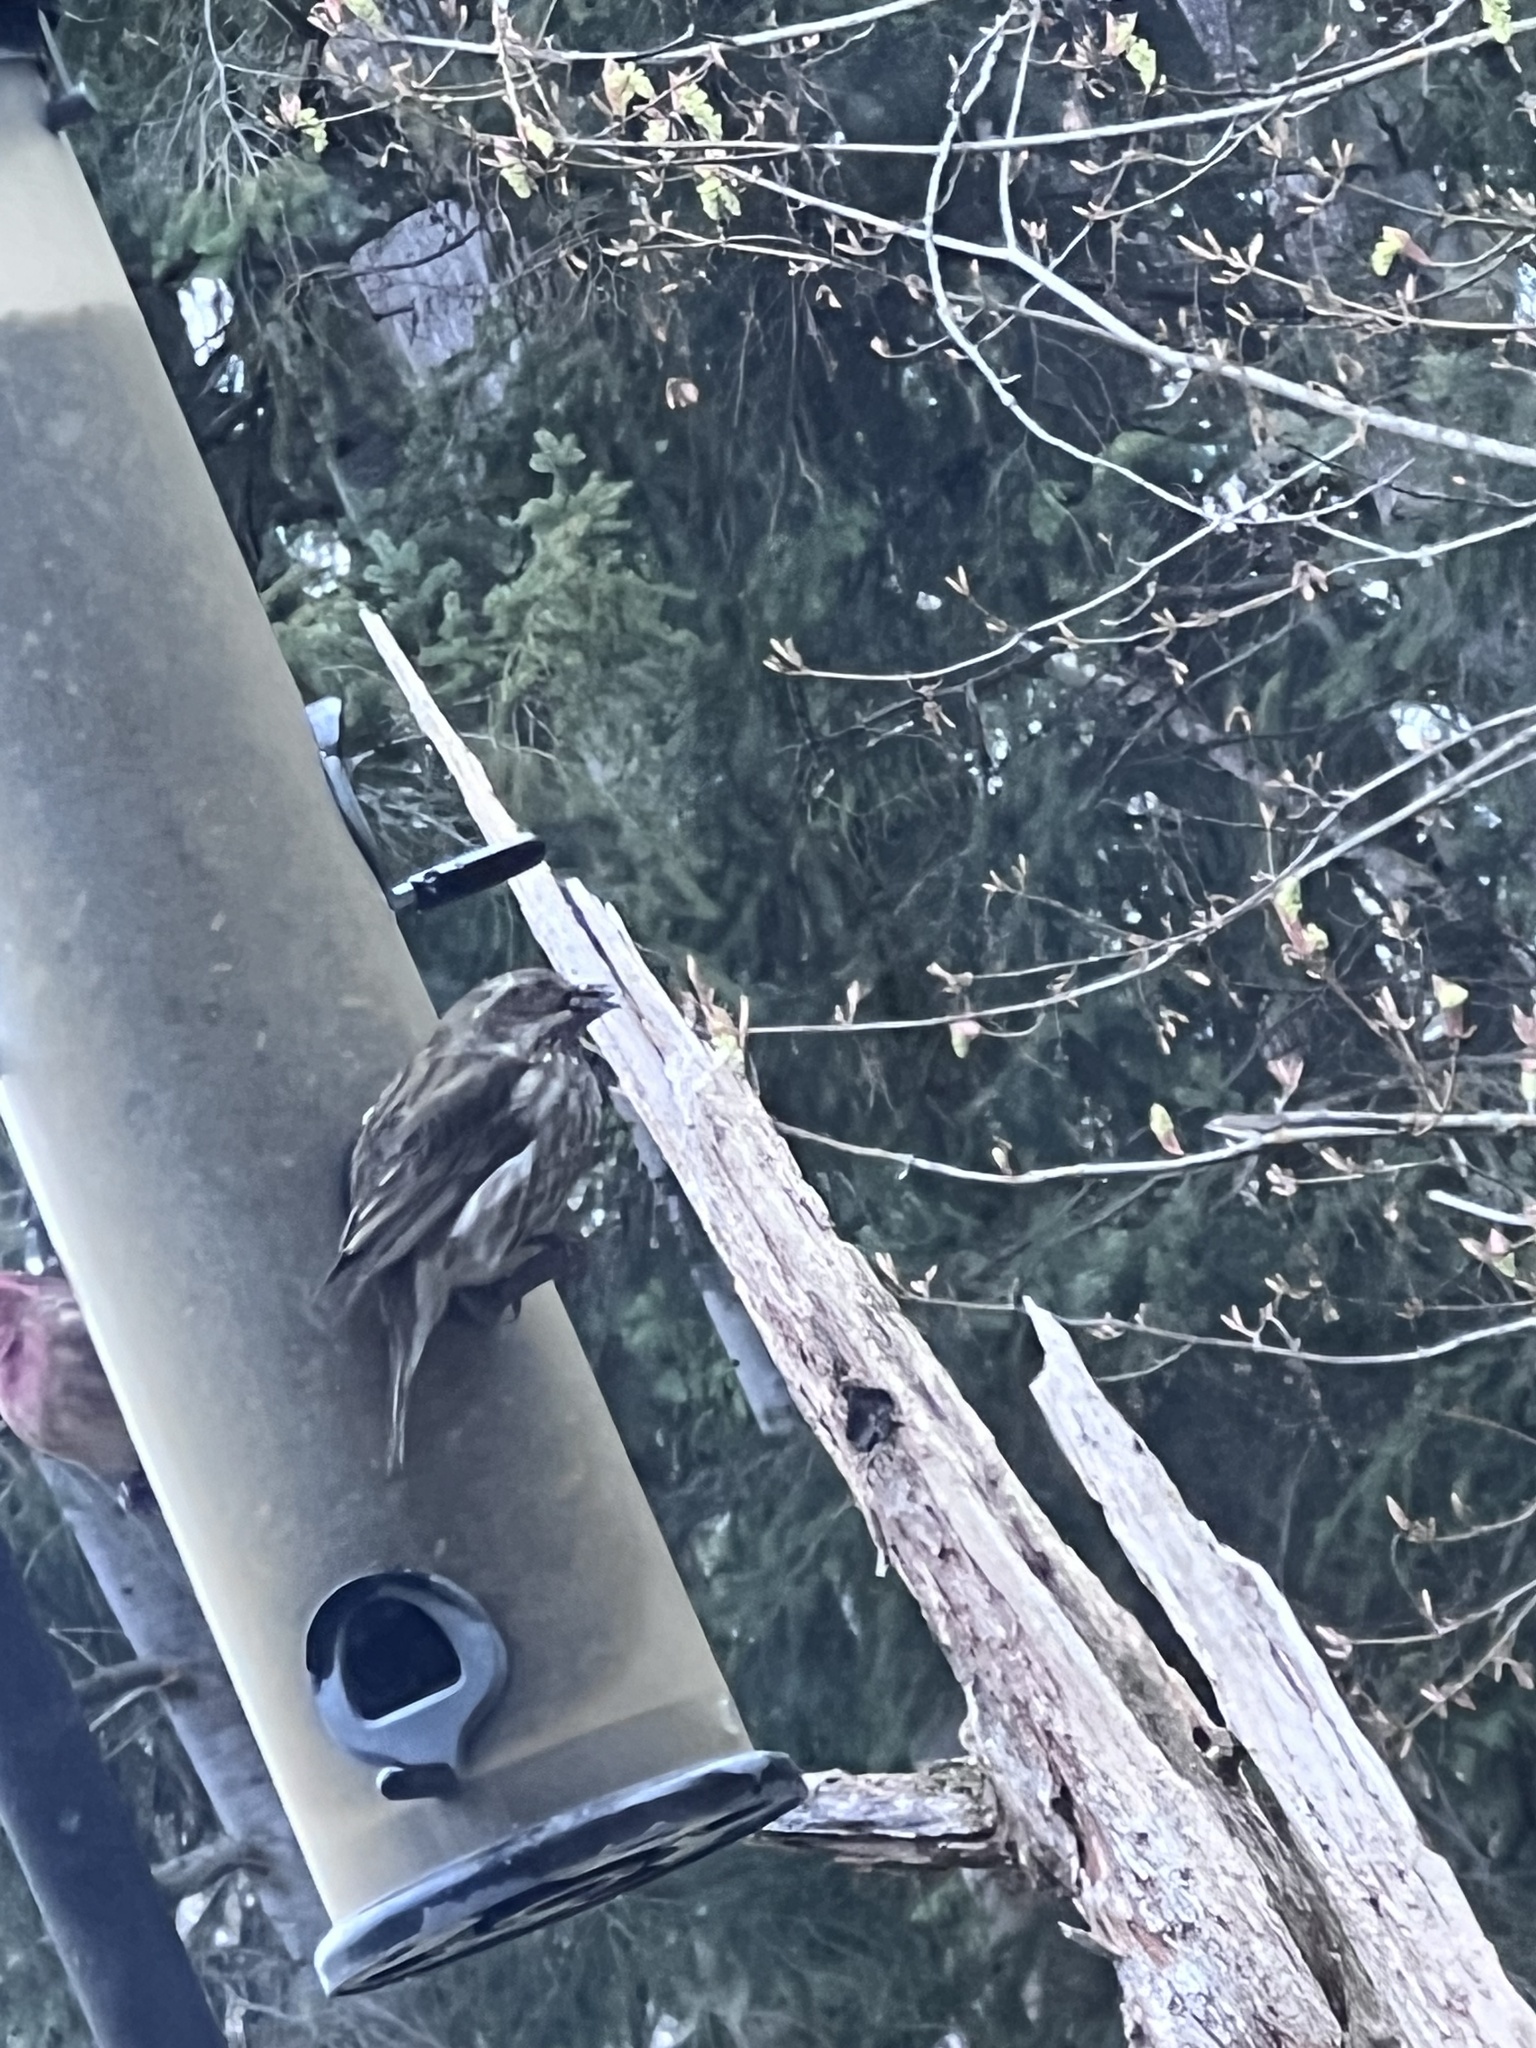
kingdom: Animalia
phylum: Chordata
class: Aves
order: Passeriformes
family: Fringillidae
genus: Haemorhous
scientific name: Haemorhous purpureus
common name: Purple finch
